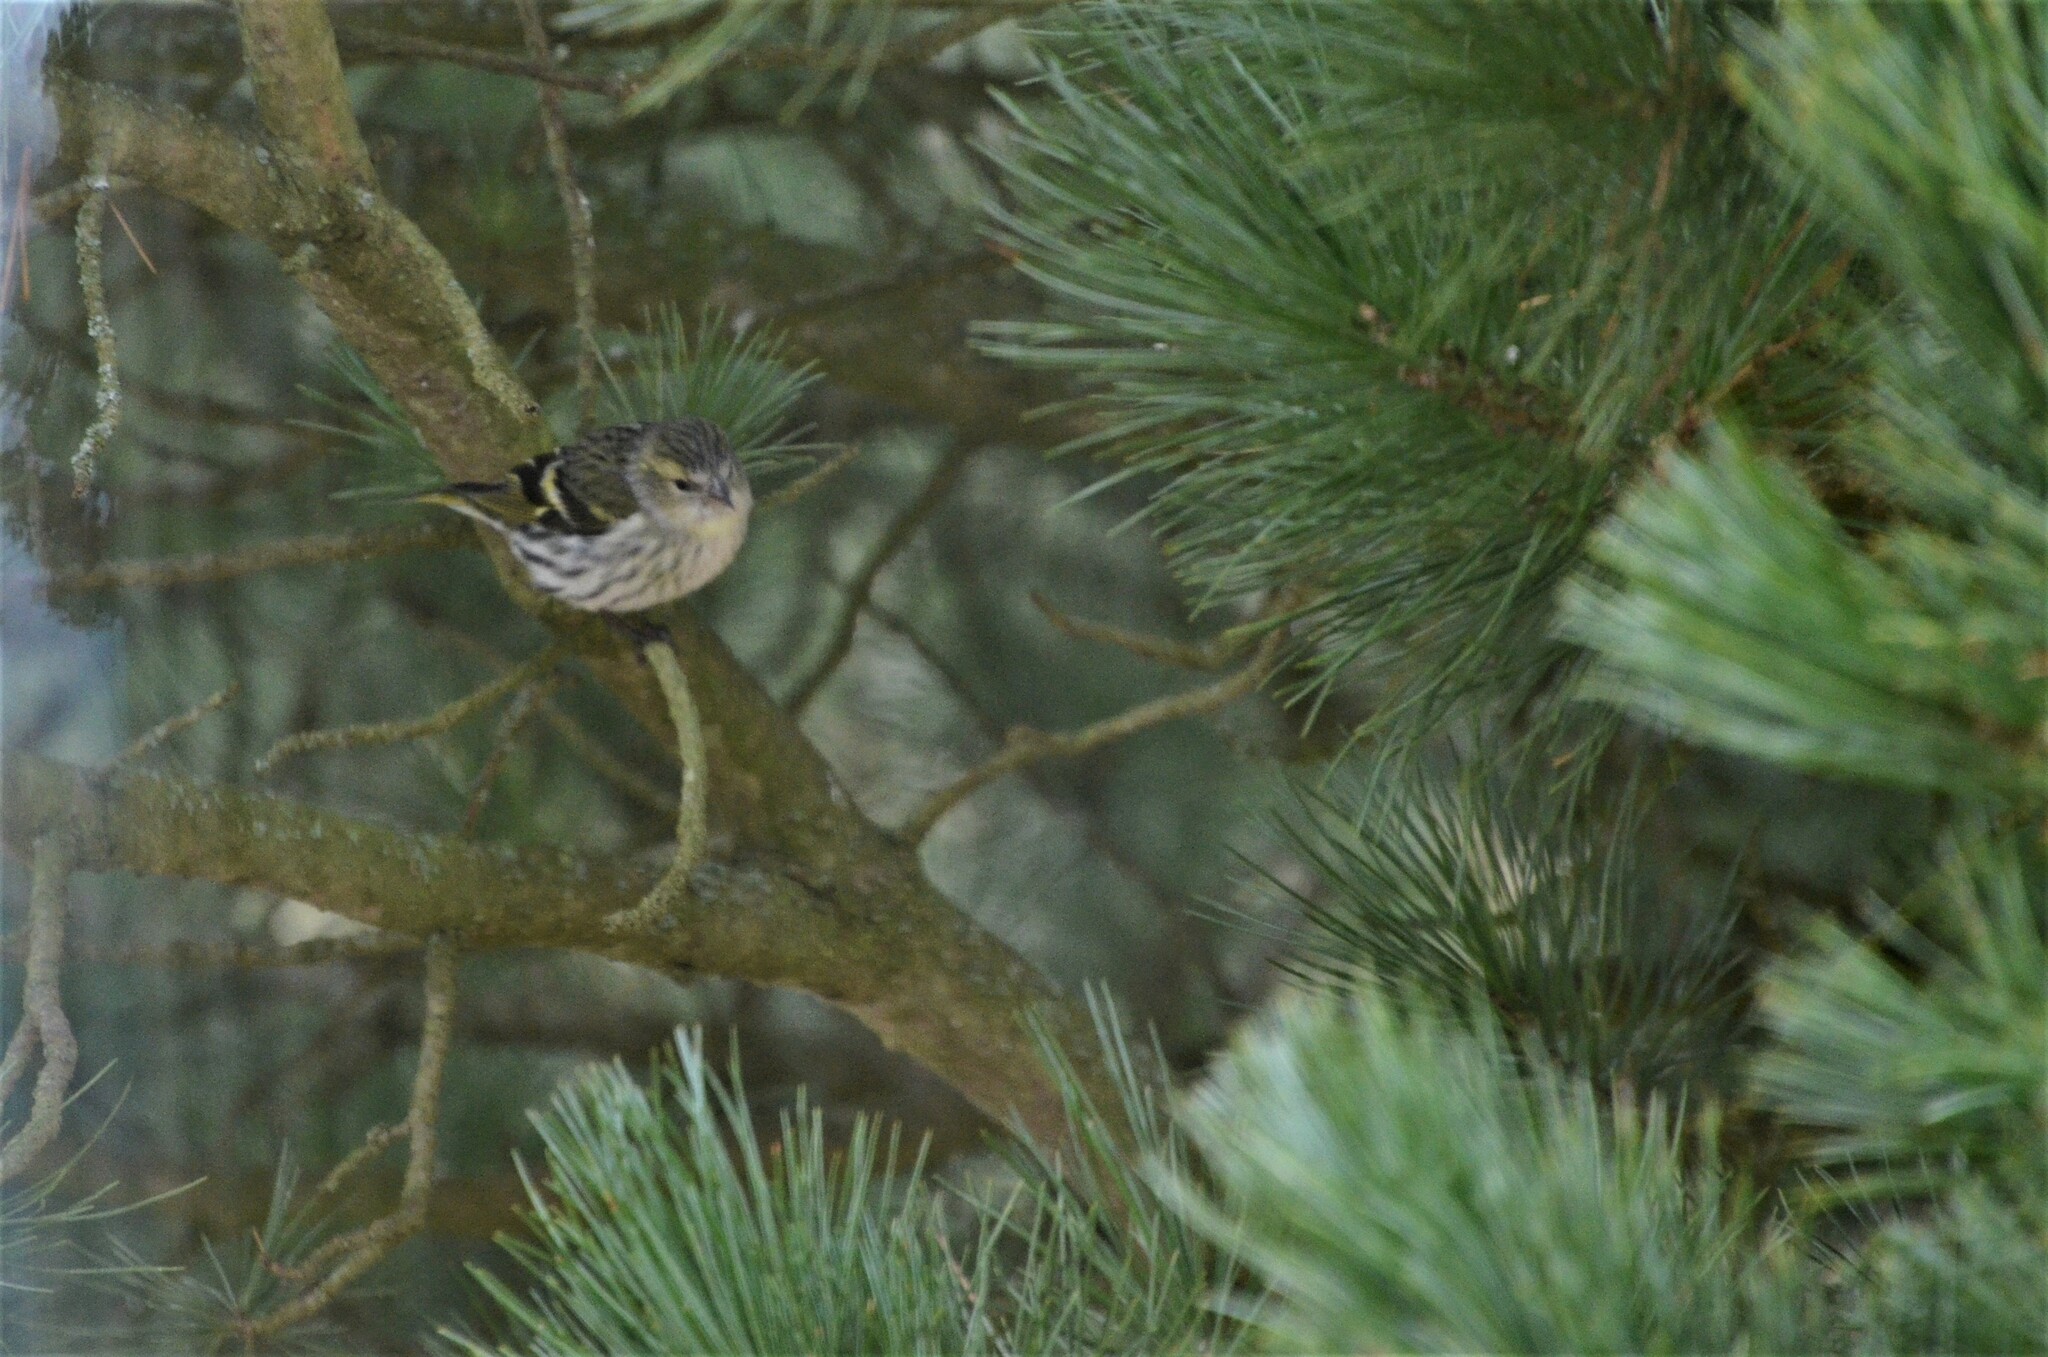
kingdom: Animalia
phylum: Chordata
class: Aves
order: Passeriformes
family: Fringillidae
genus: Spinus
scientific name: Spinus spinus
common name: Eurasian siskin
